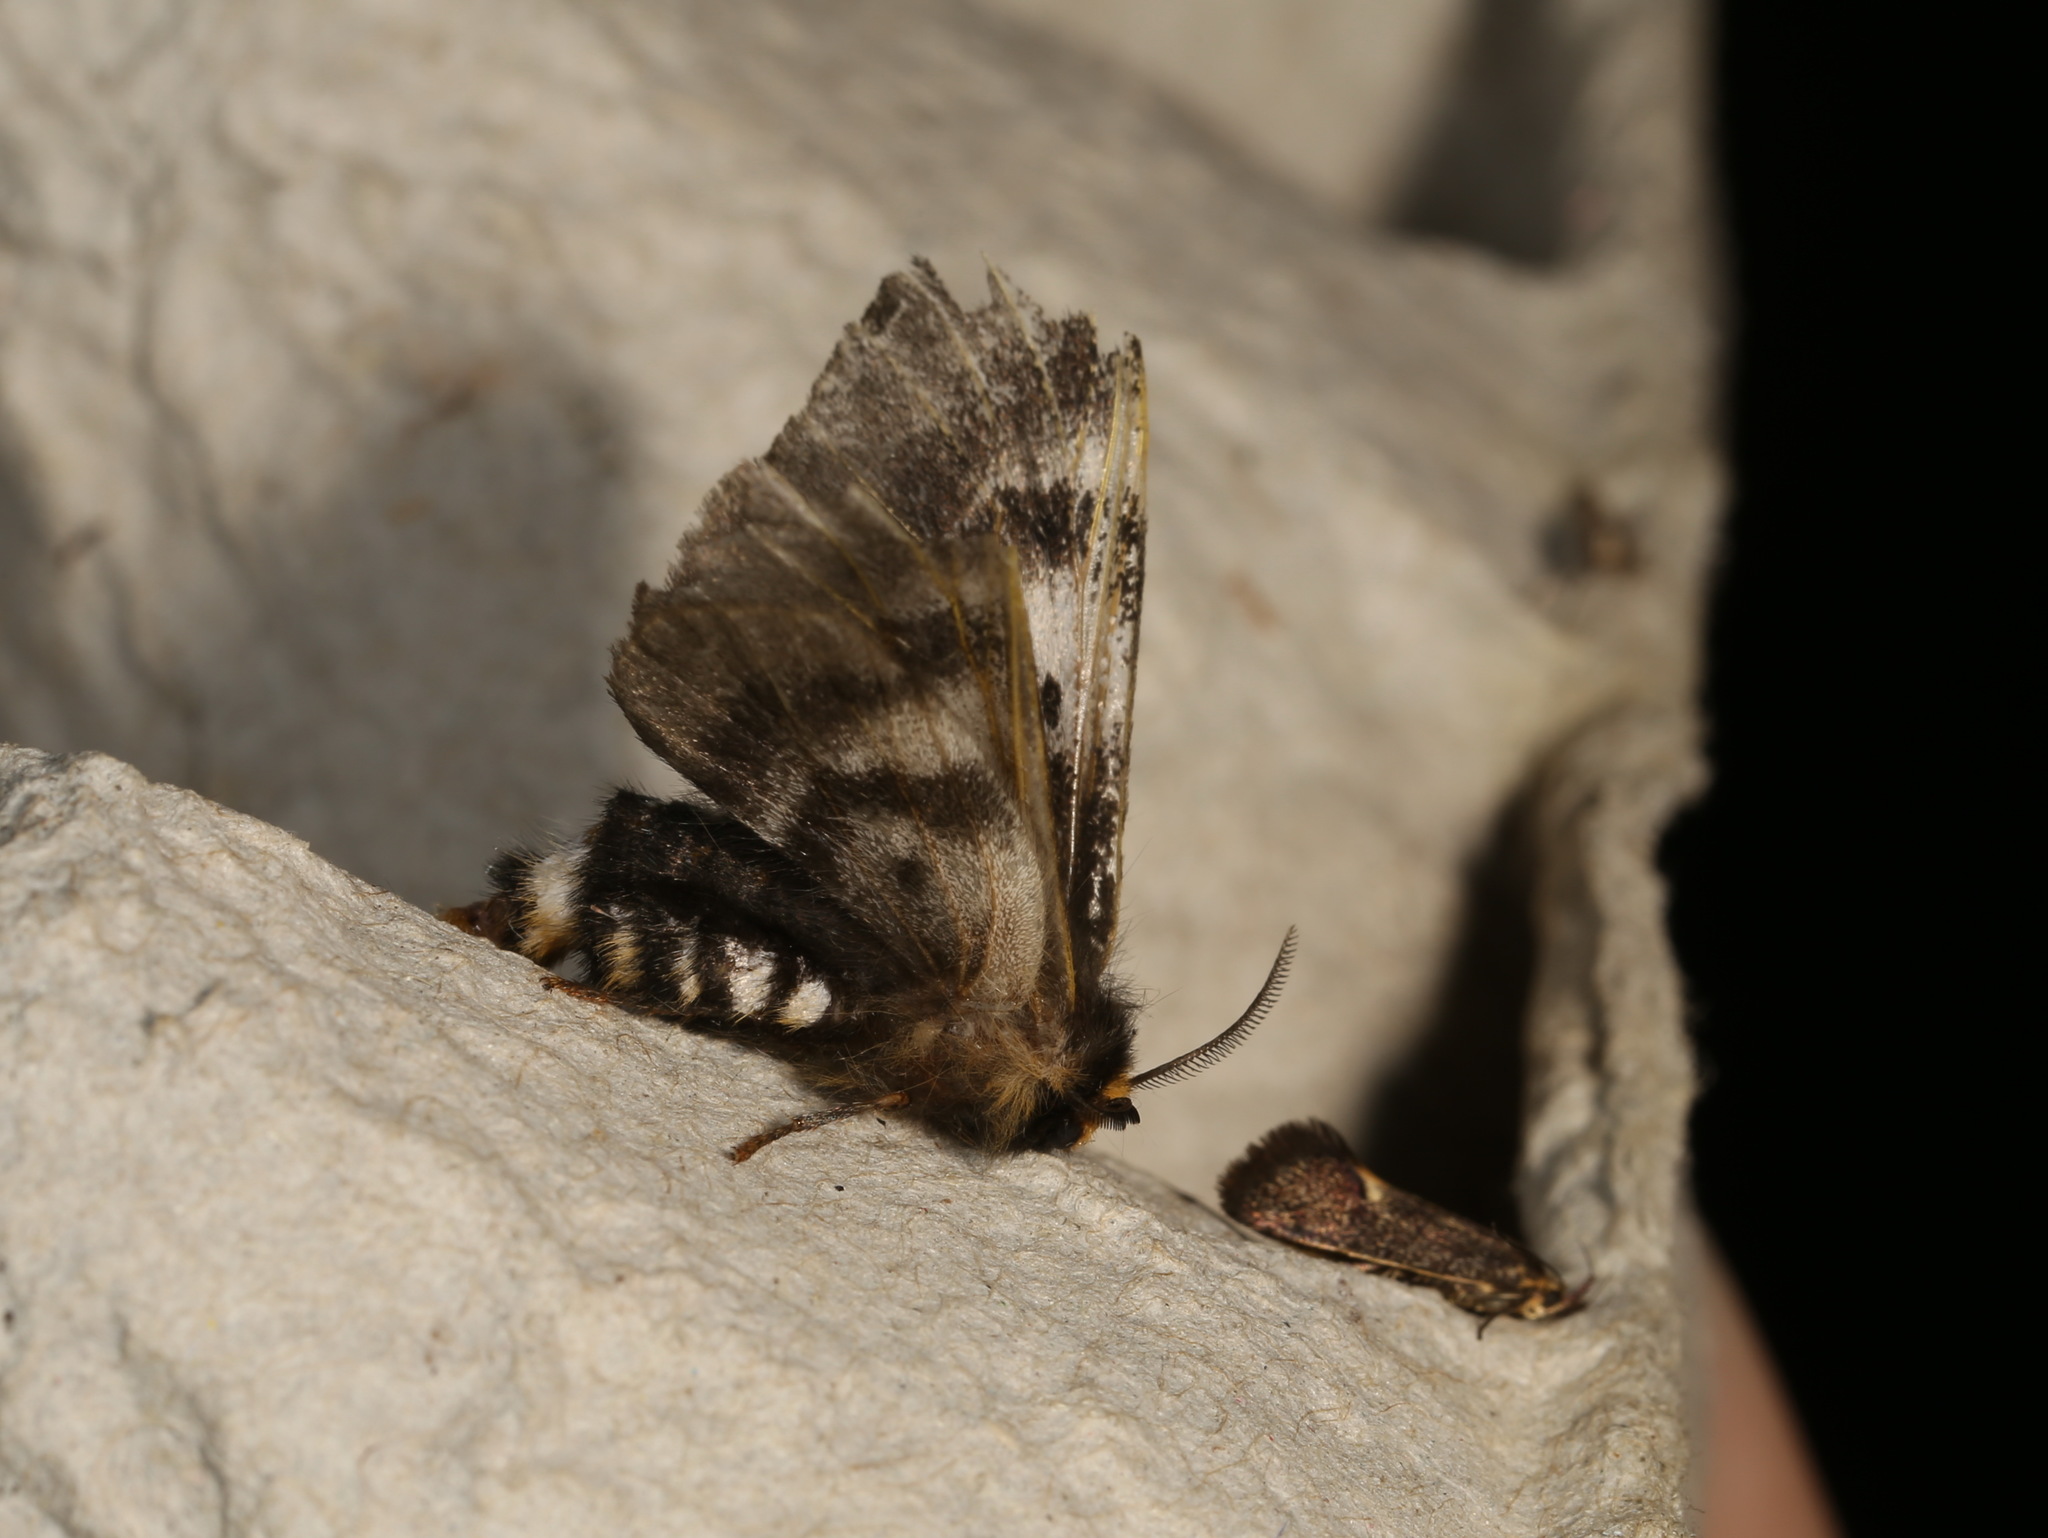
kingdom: Animalia
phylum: Arthropoda
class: Insecta
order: Lepidoptera
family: Oecophoridae
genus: Leistomorpha
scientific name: Leistomorpha brontoscopa
